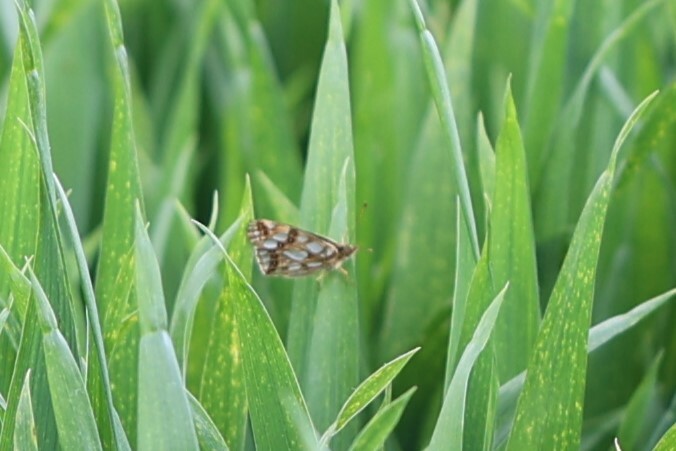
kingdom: Animalia
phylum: Arthropoda
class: Insecta
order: Lepidoptera
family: Nymphalidae
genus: Issoria
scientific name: Issoria lathonia
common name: Queen of spain fritillary
